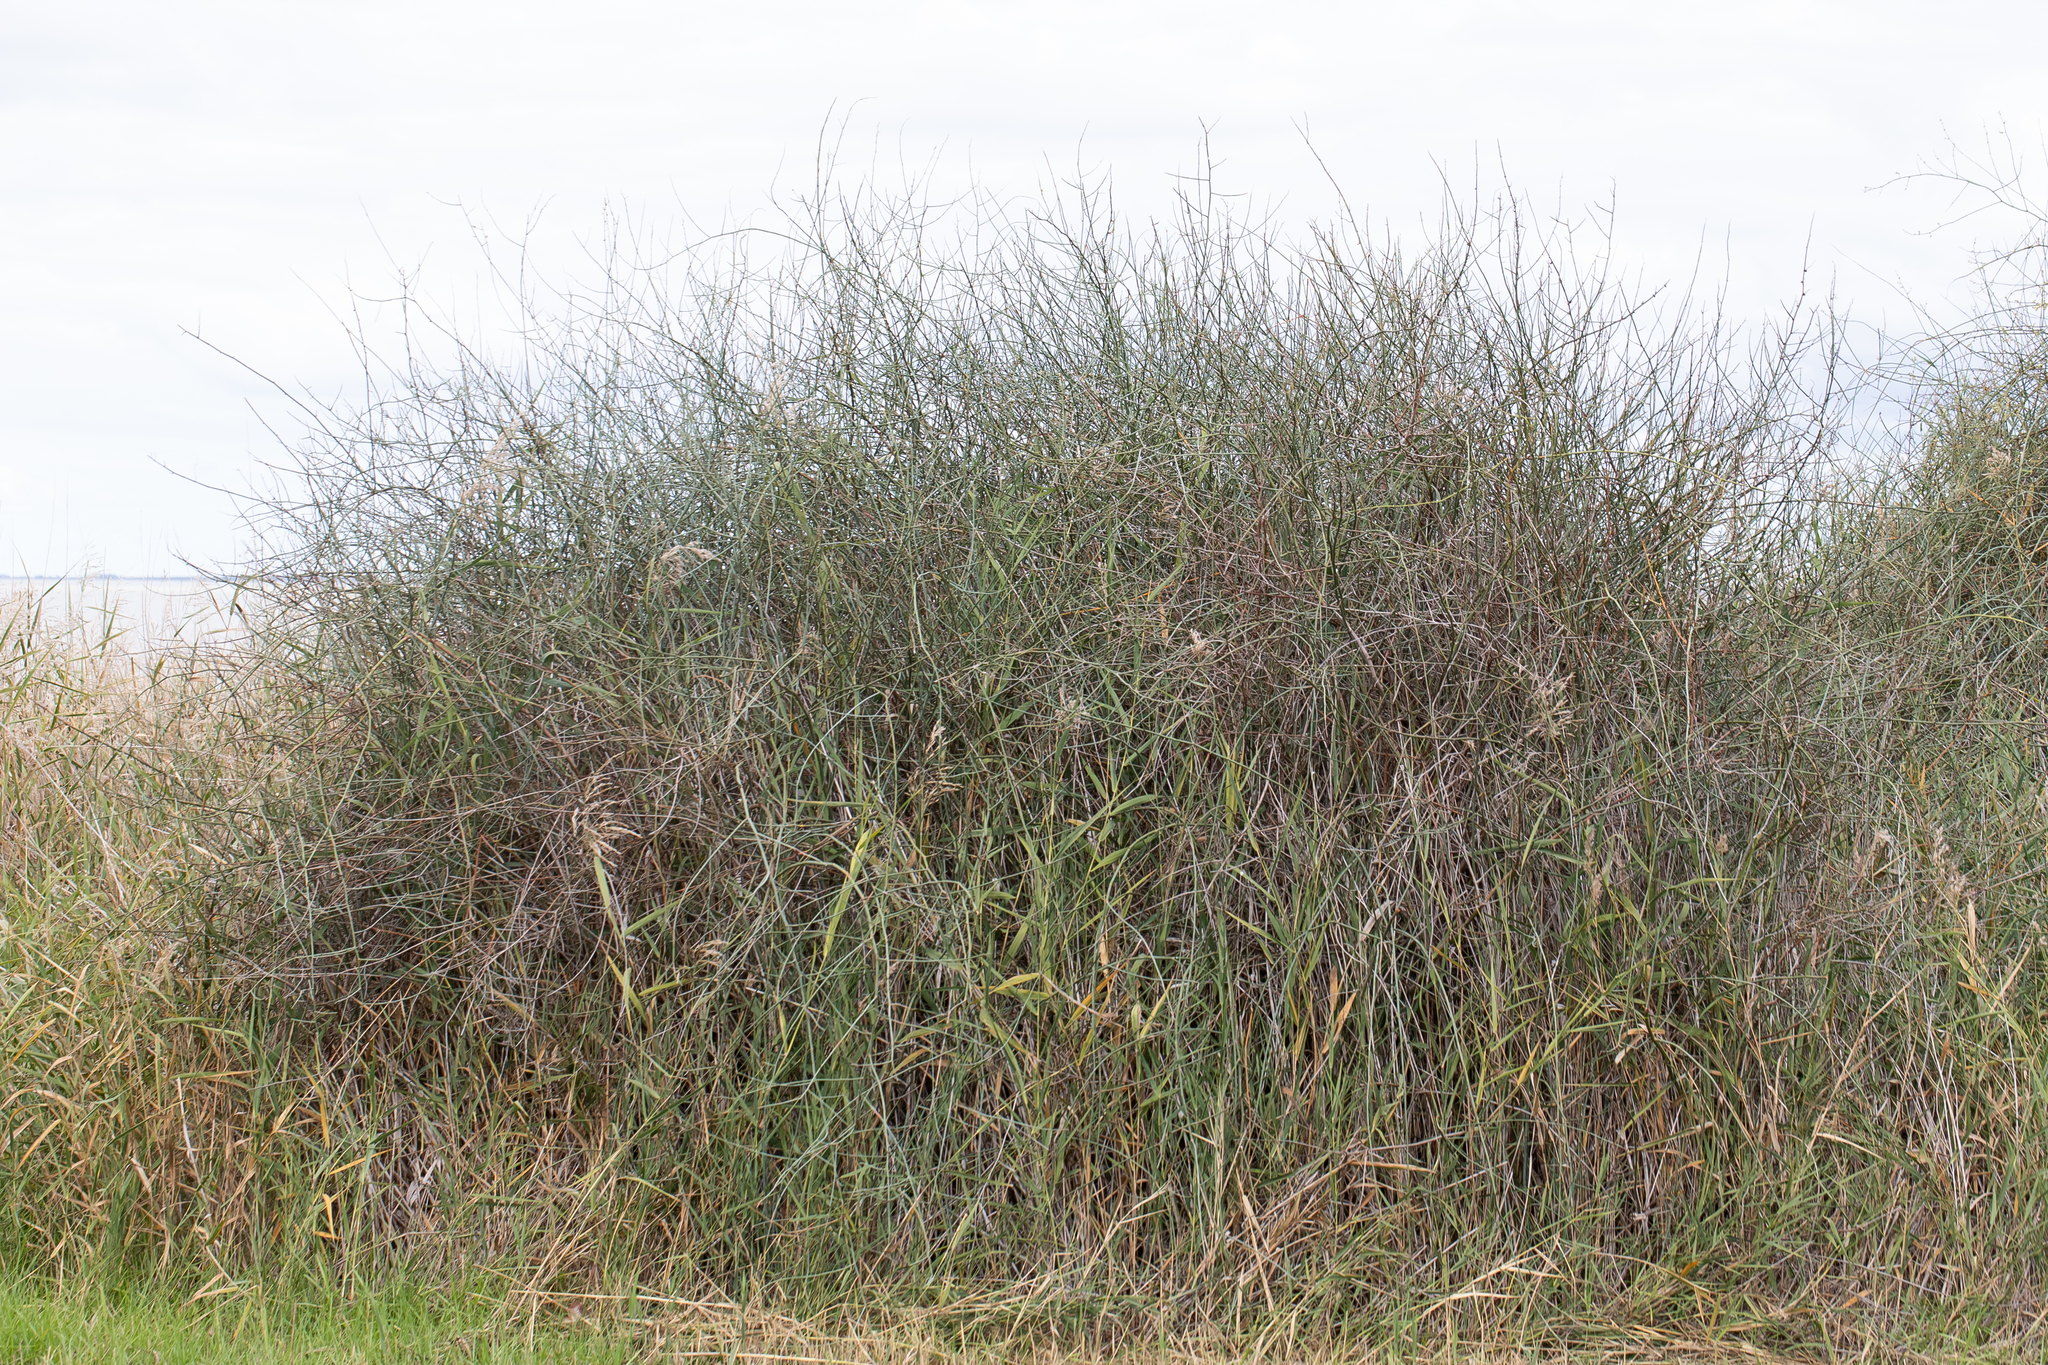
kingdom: Plantae
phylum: Tracheophyta
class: Magnoliopsida
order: Caryophyllales
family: Polygonaceae
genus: Duma
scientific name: Duma florulenta
